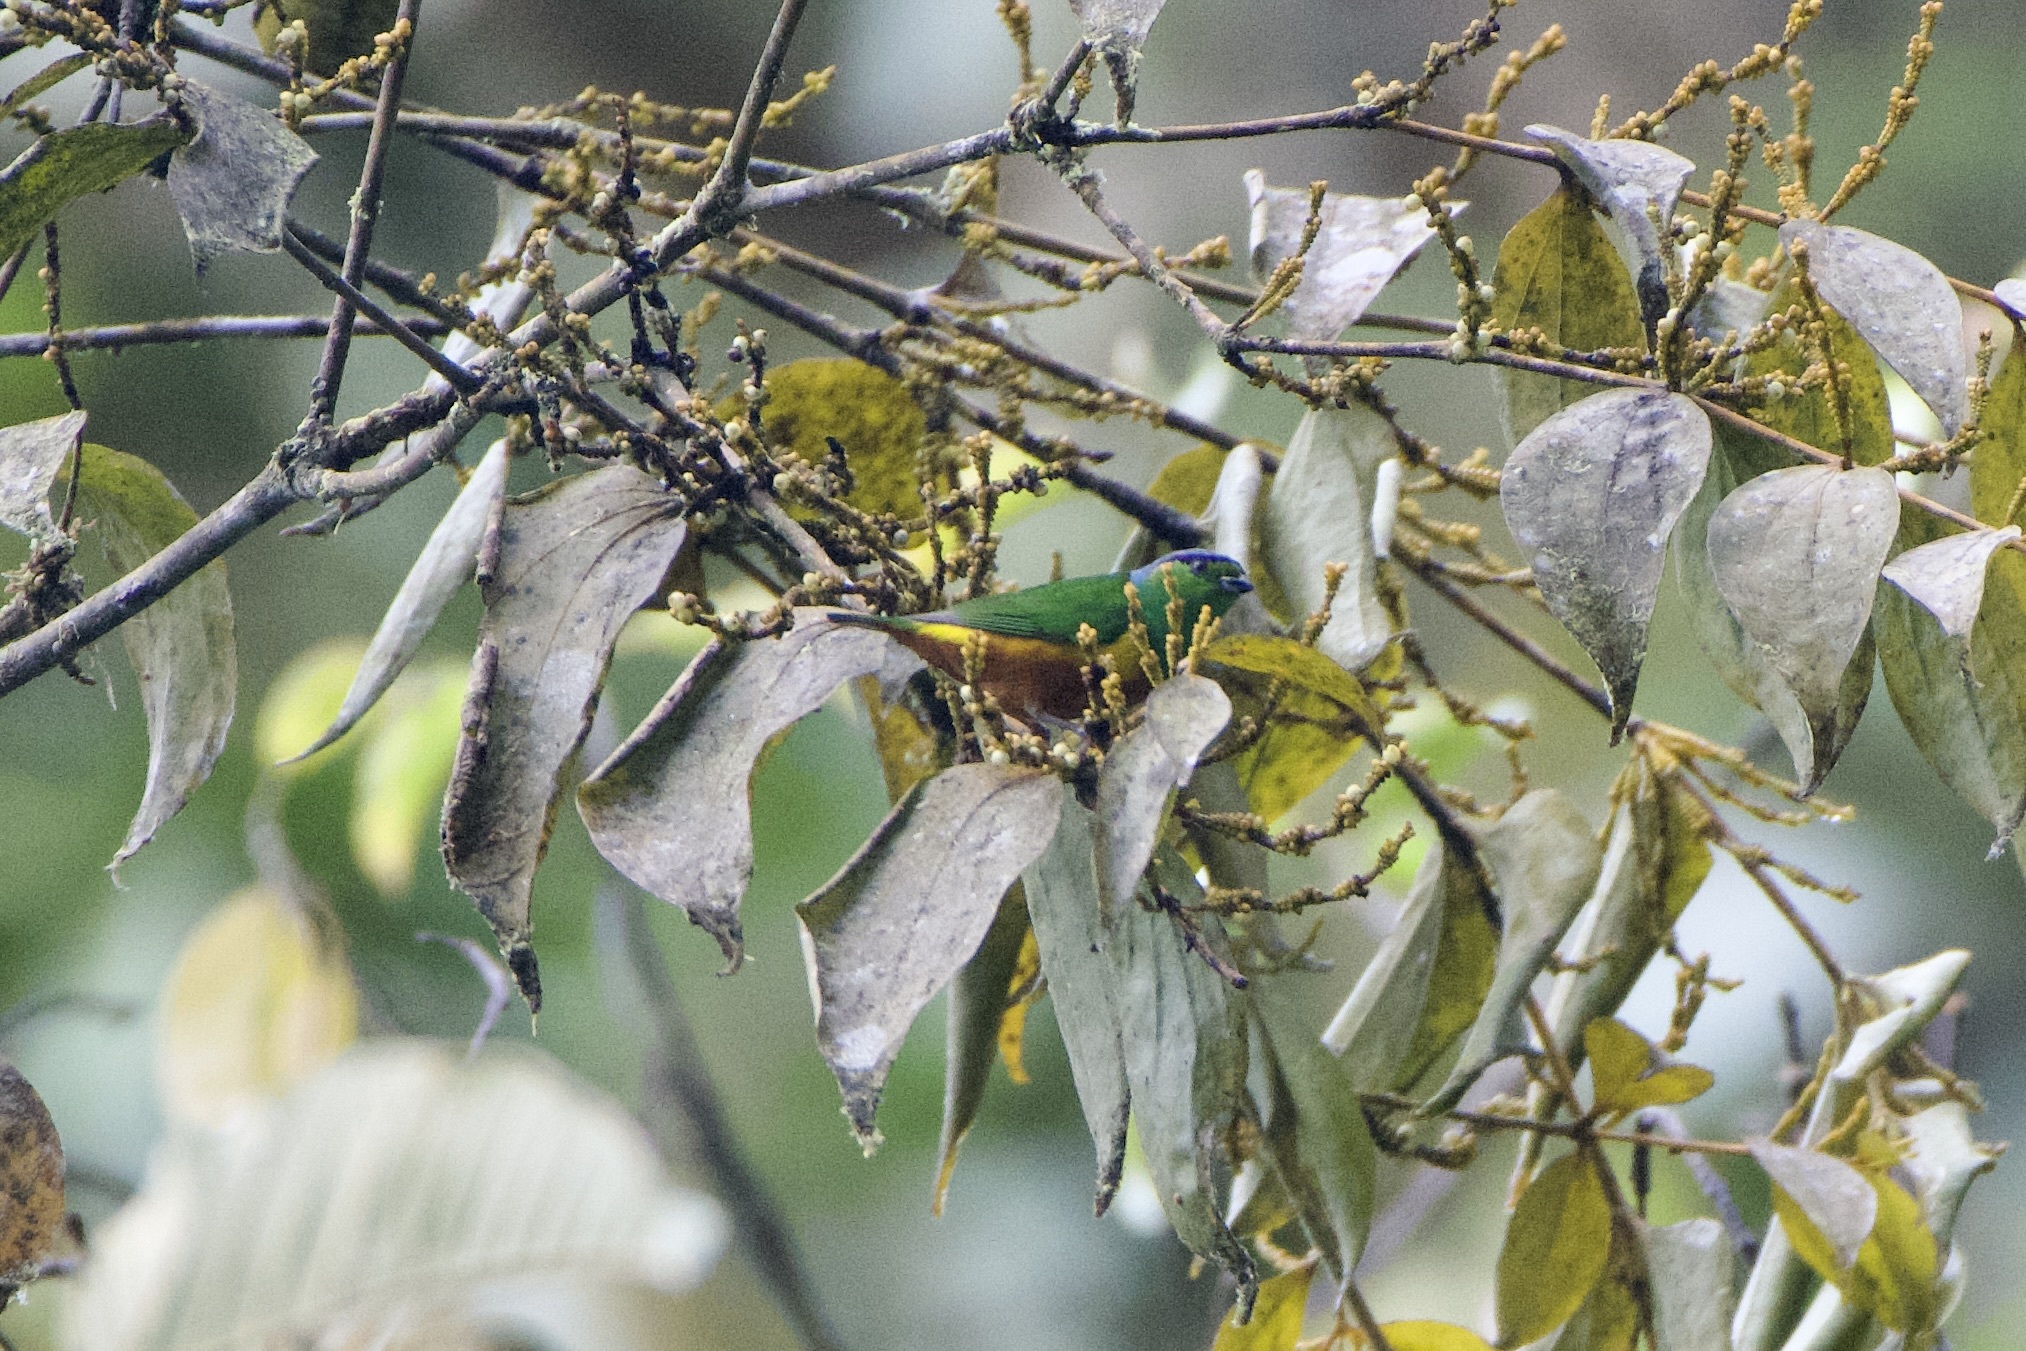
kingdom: Animalia
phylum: Chordata
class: Aves
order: Passeriformes
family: Fringillidae
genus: Chlorophonia
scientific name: Chlorophonia pyrrhophrys
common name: Chestnut-breasted chlorophonia
